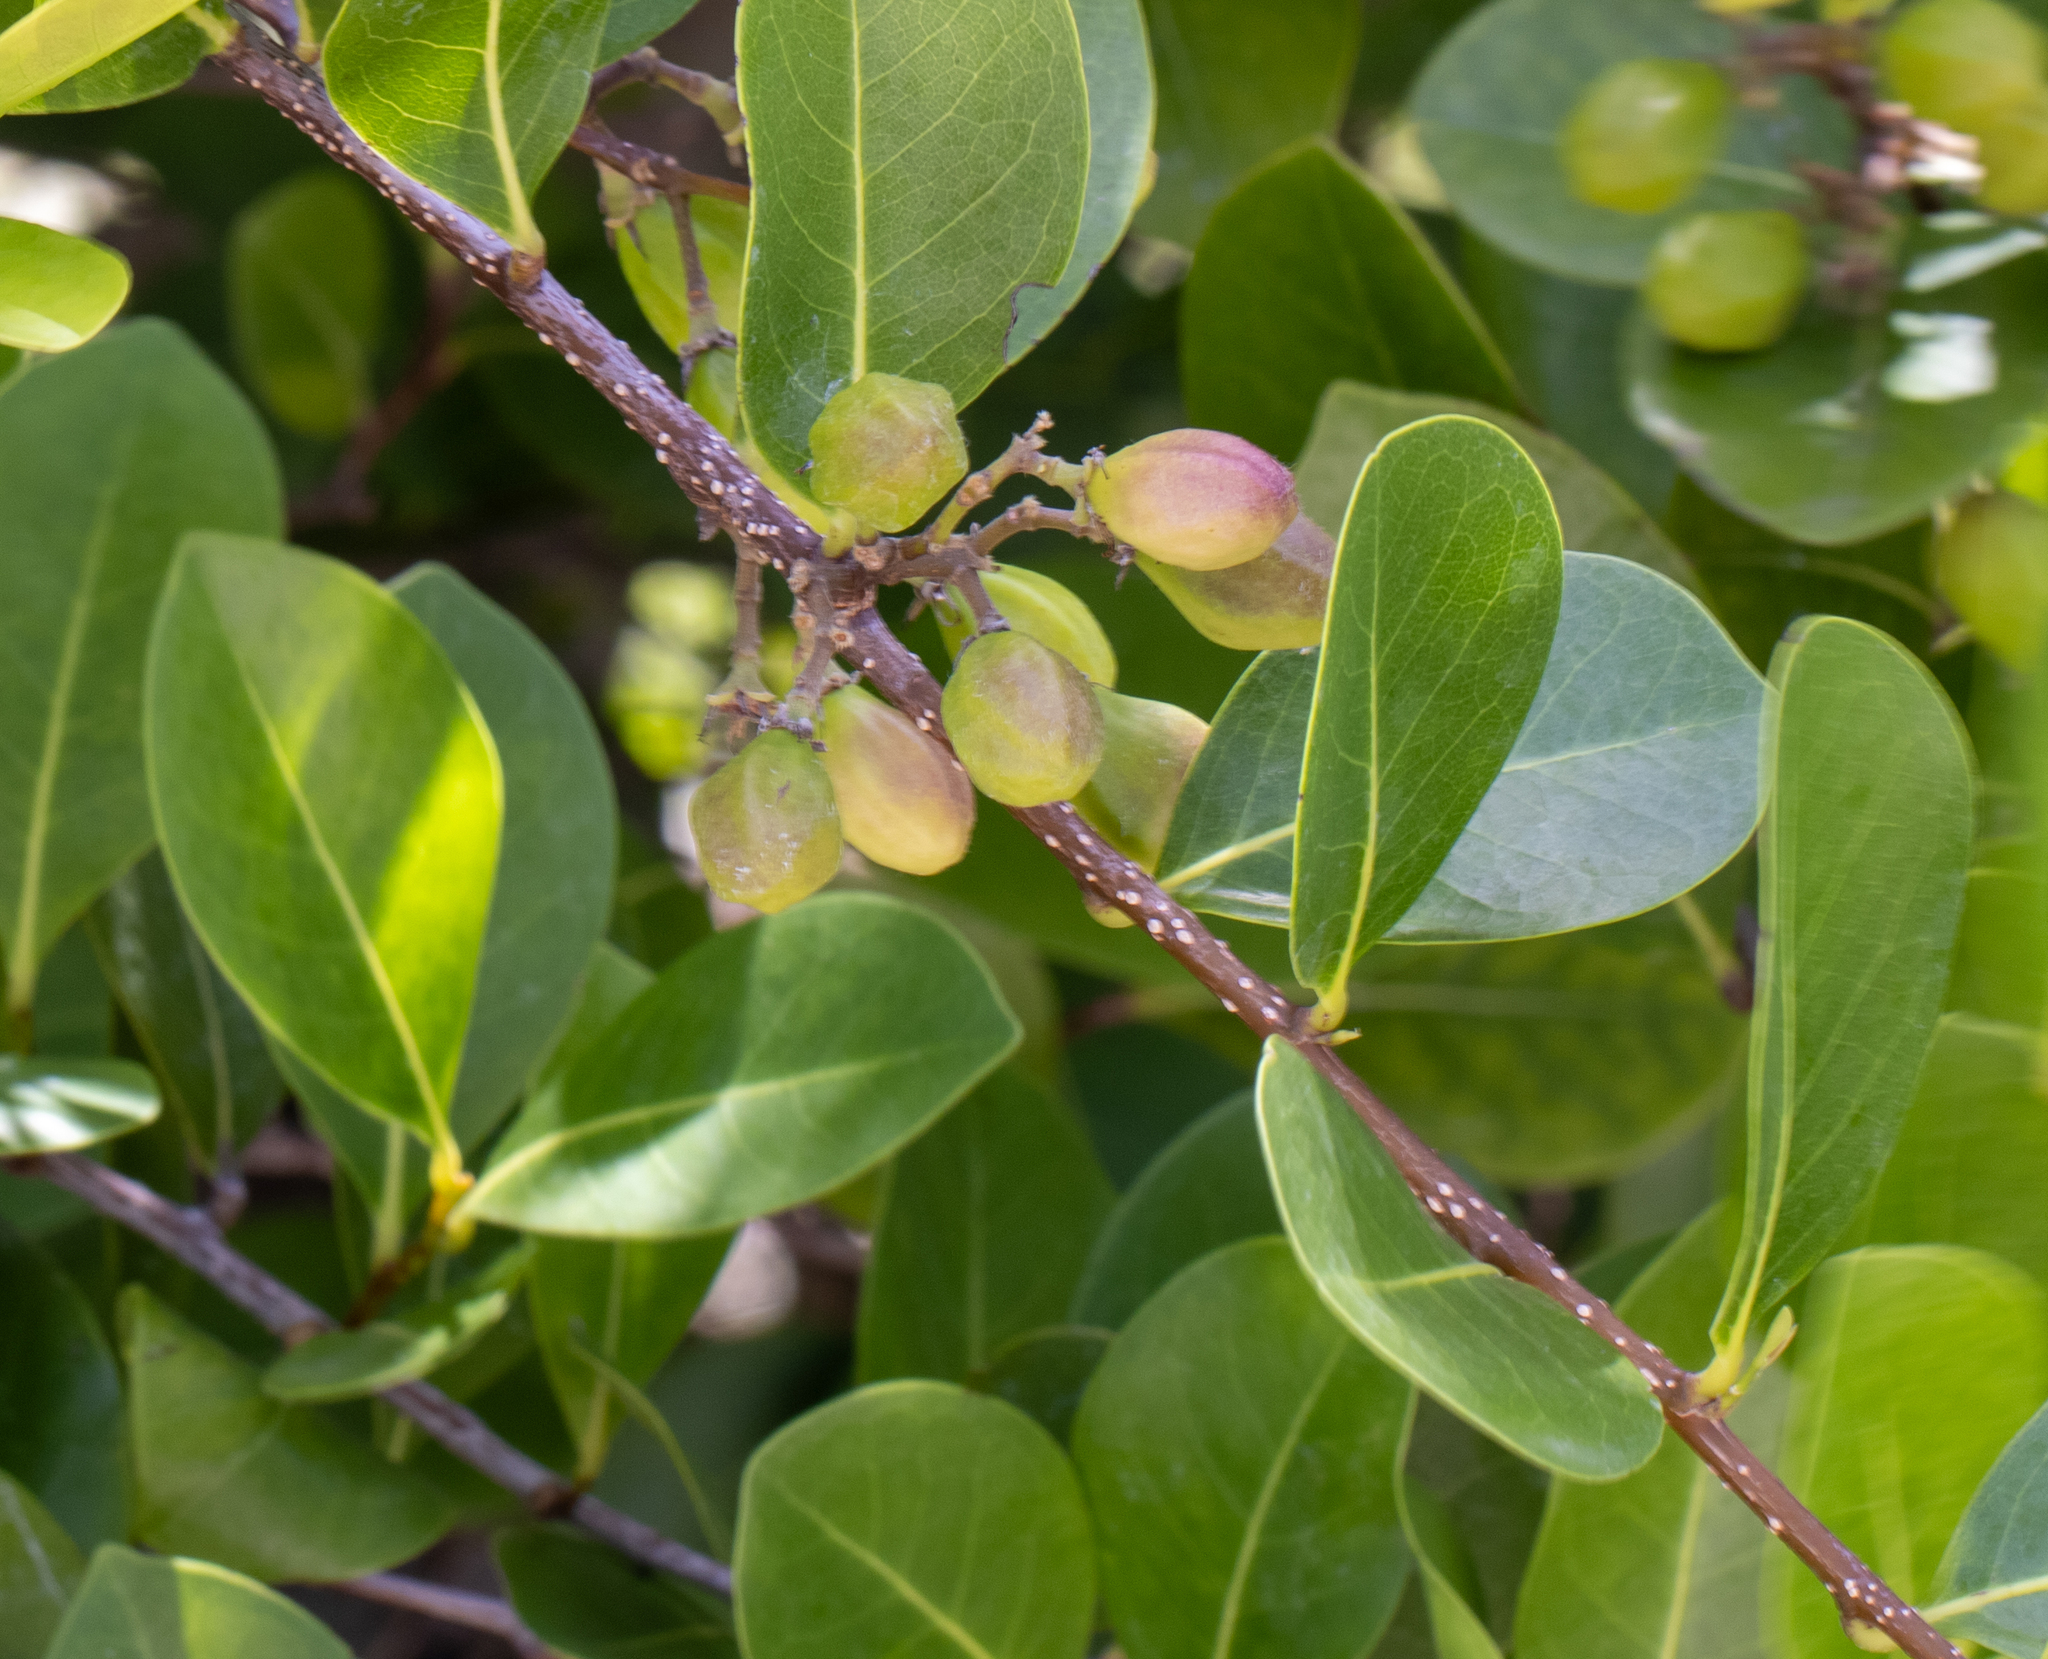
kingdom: Plantae
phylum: Tracheophyta
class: Magnoliopsida
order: Malpighiales
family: Chrysobalanaceae
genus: Chrysobalanus
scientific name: Chrysobalanus icaco
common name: Coco plum
